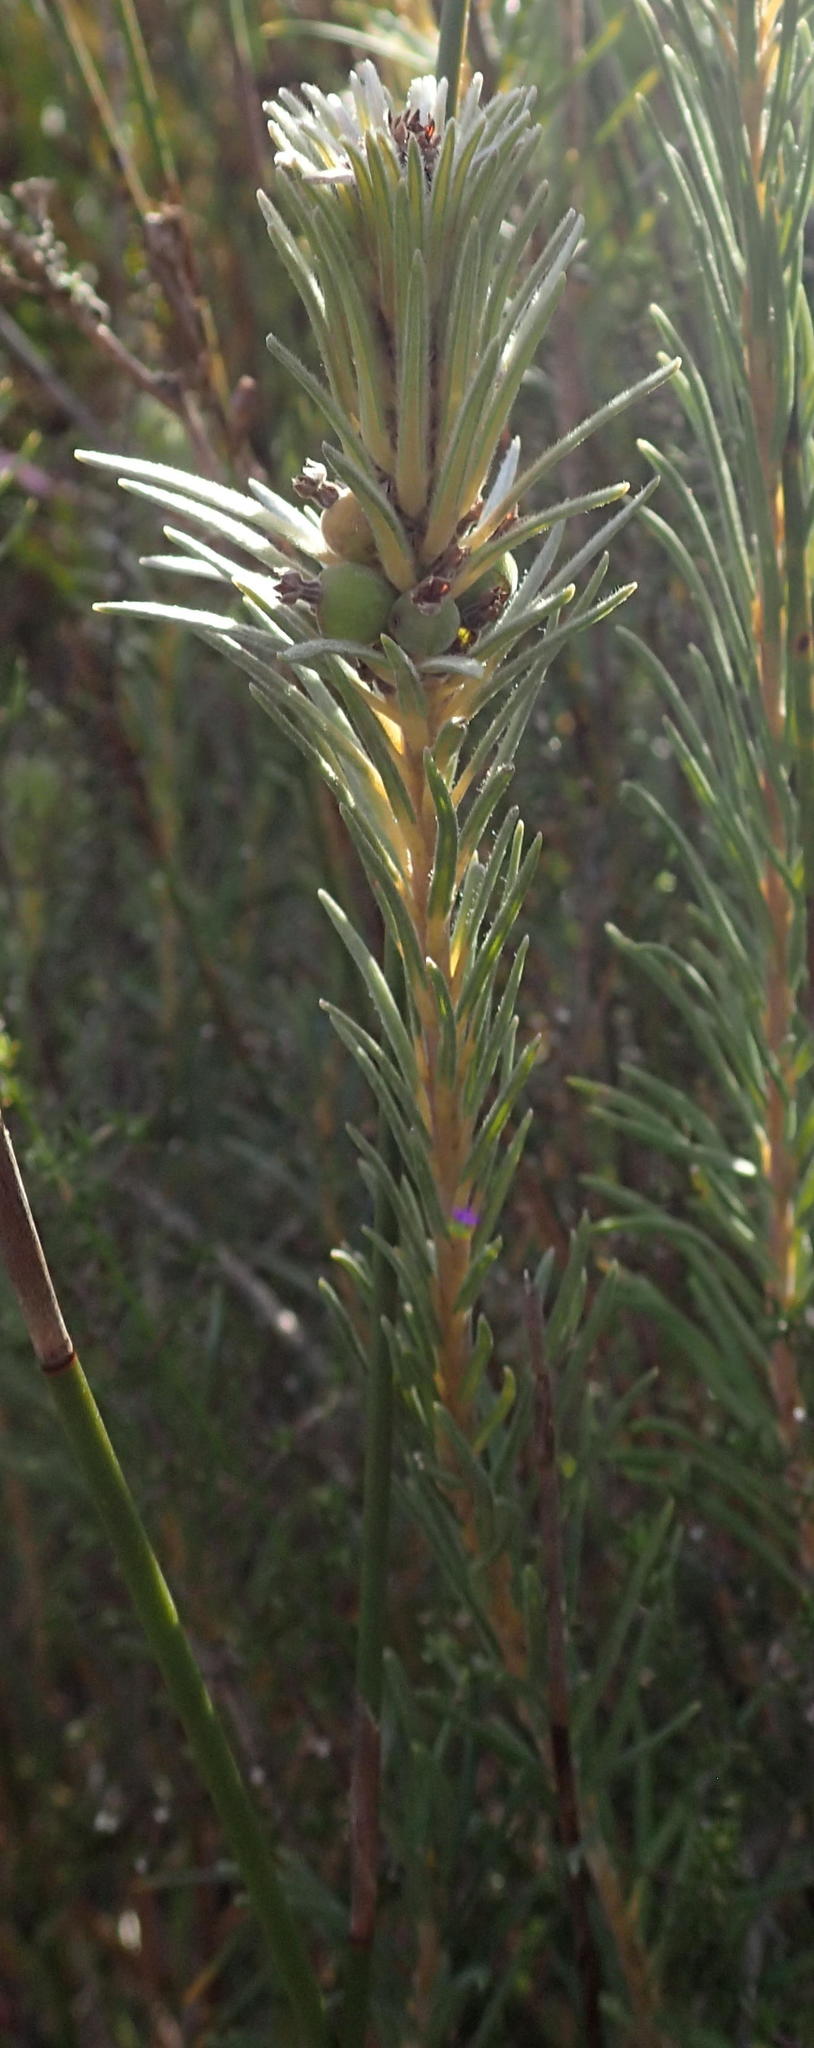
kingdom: Plantae
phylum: Tracheophyta
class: Magnoliopsida
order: Rosales
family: Rhamnaceae
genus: Phylica
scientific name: Phylica velutina
